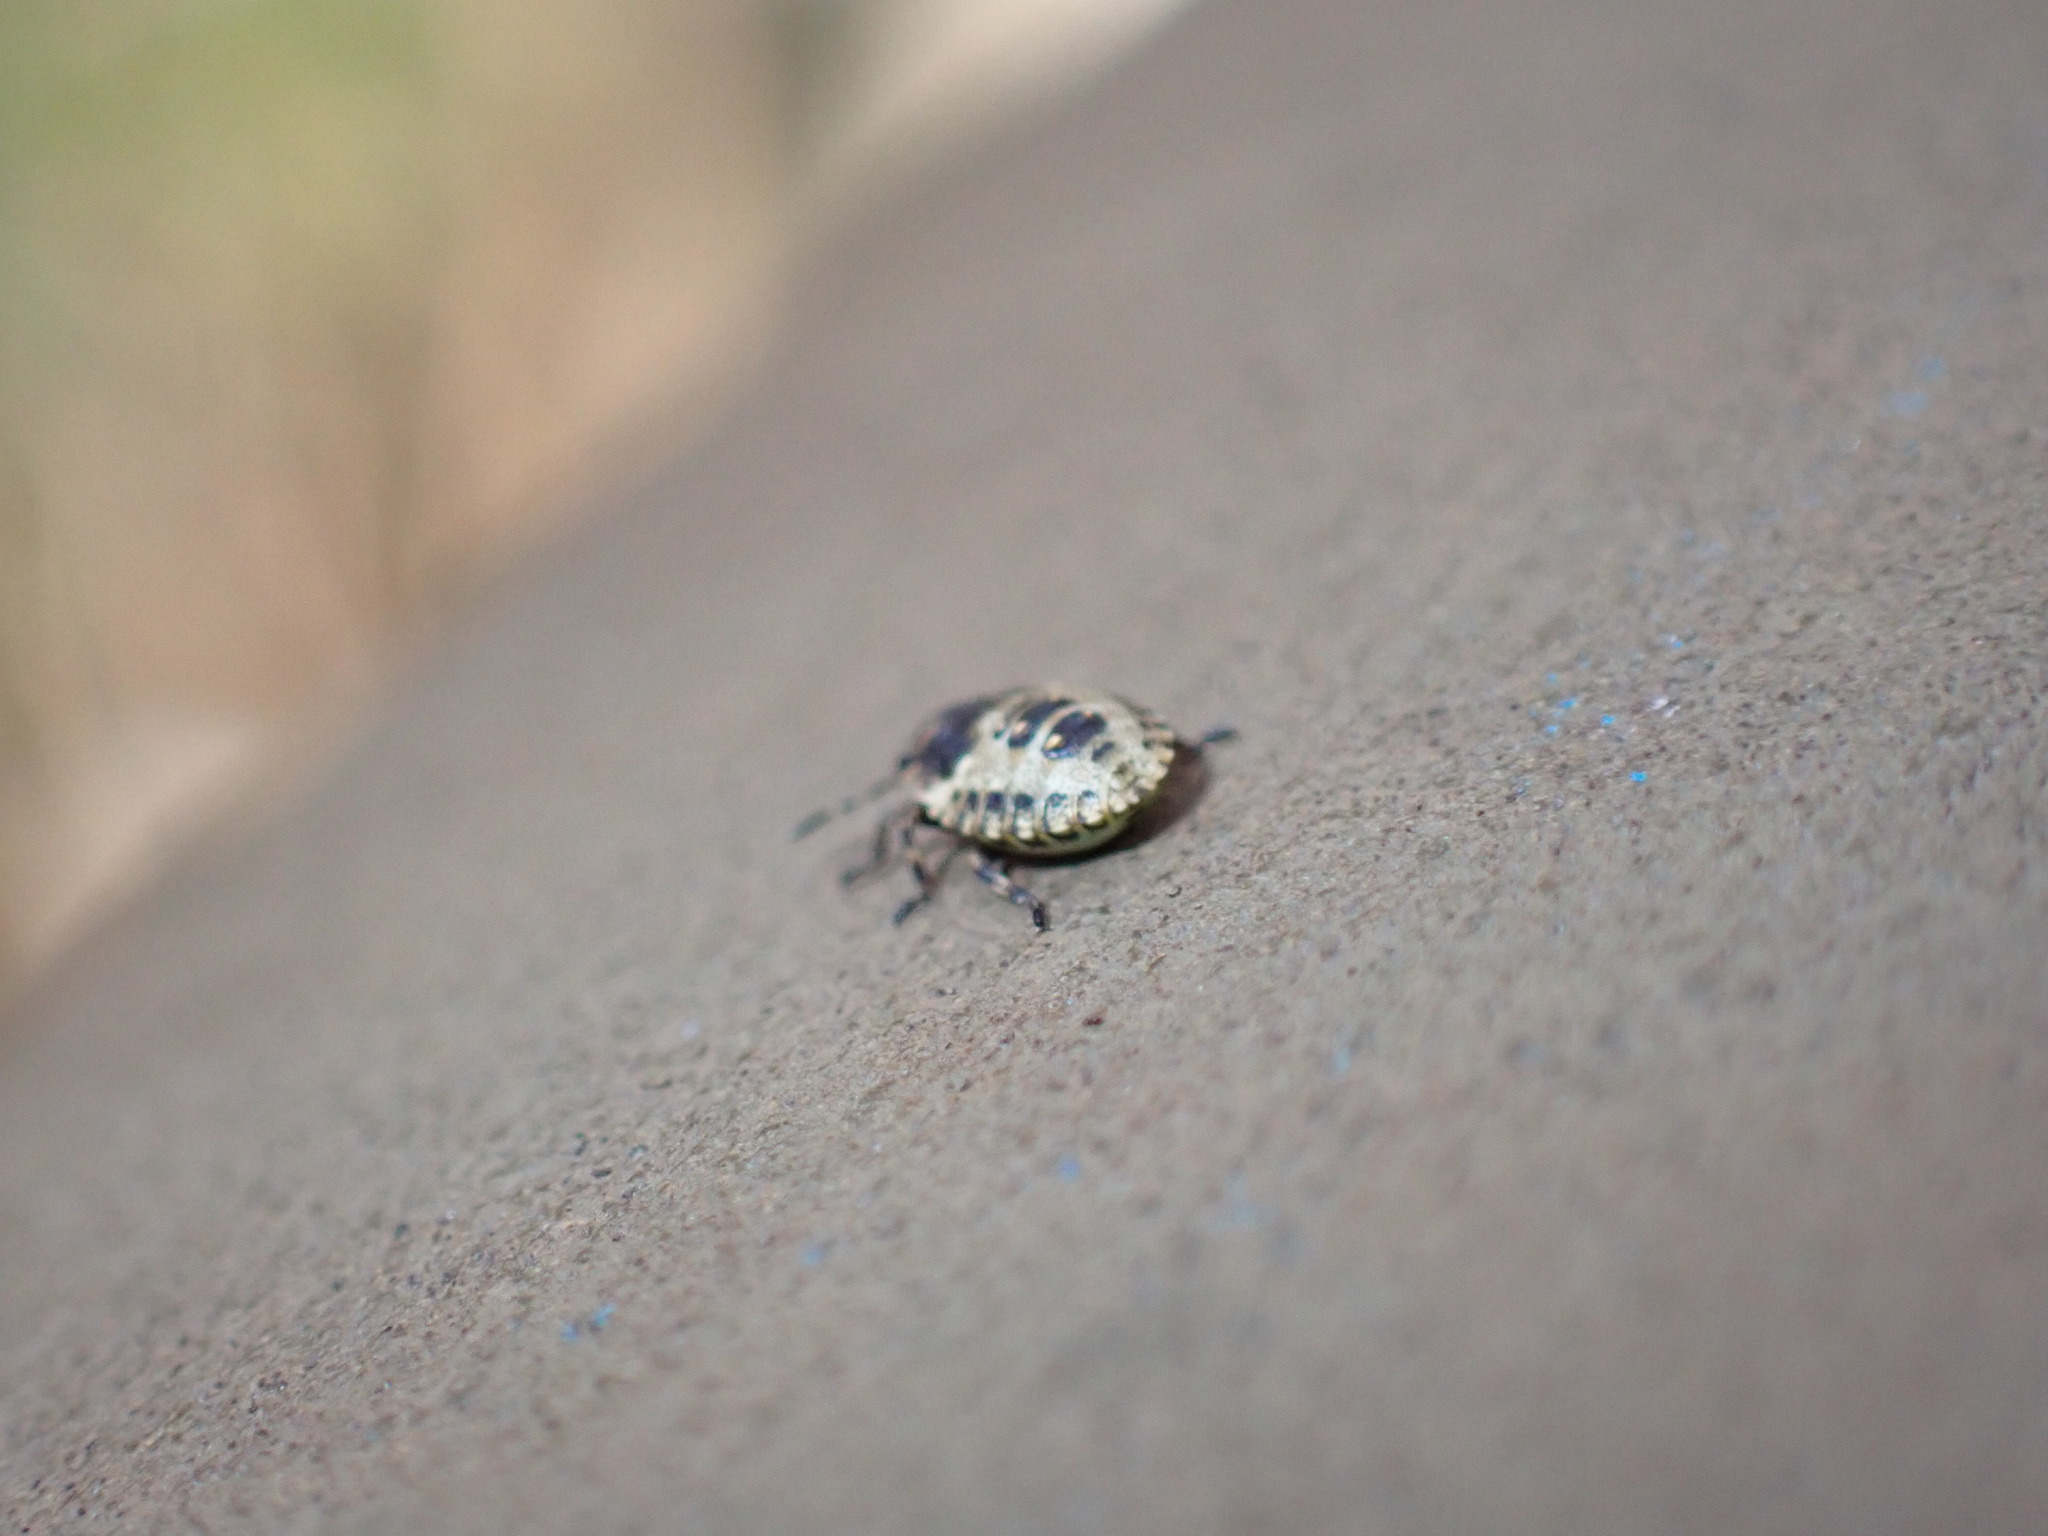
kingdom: Animalia
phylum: Arthropoda
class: Insecta
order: Hemiptera
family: Pentatomidae
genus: Pentatoma
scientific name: Pentatoma rufipes
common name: Forest bug
